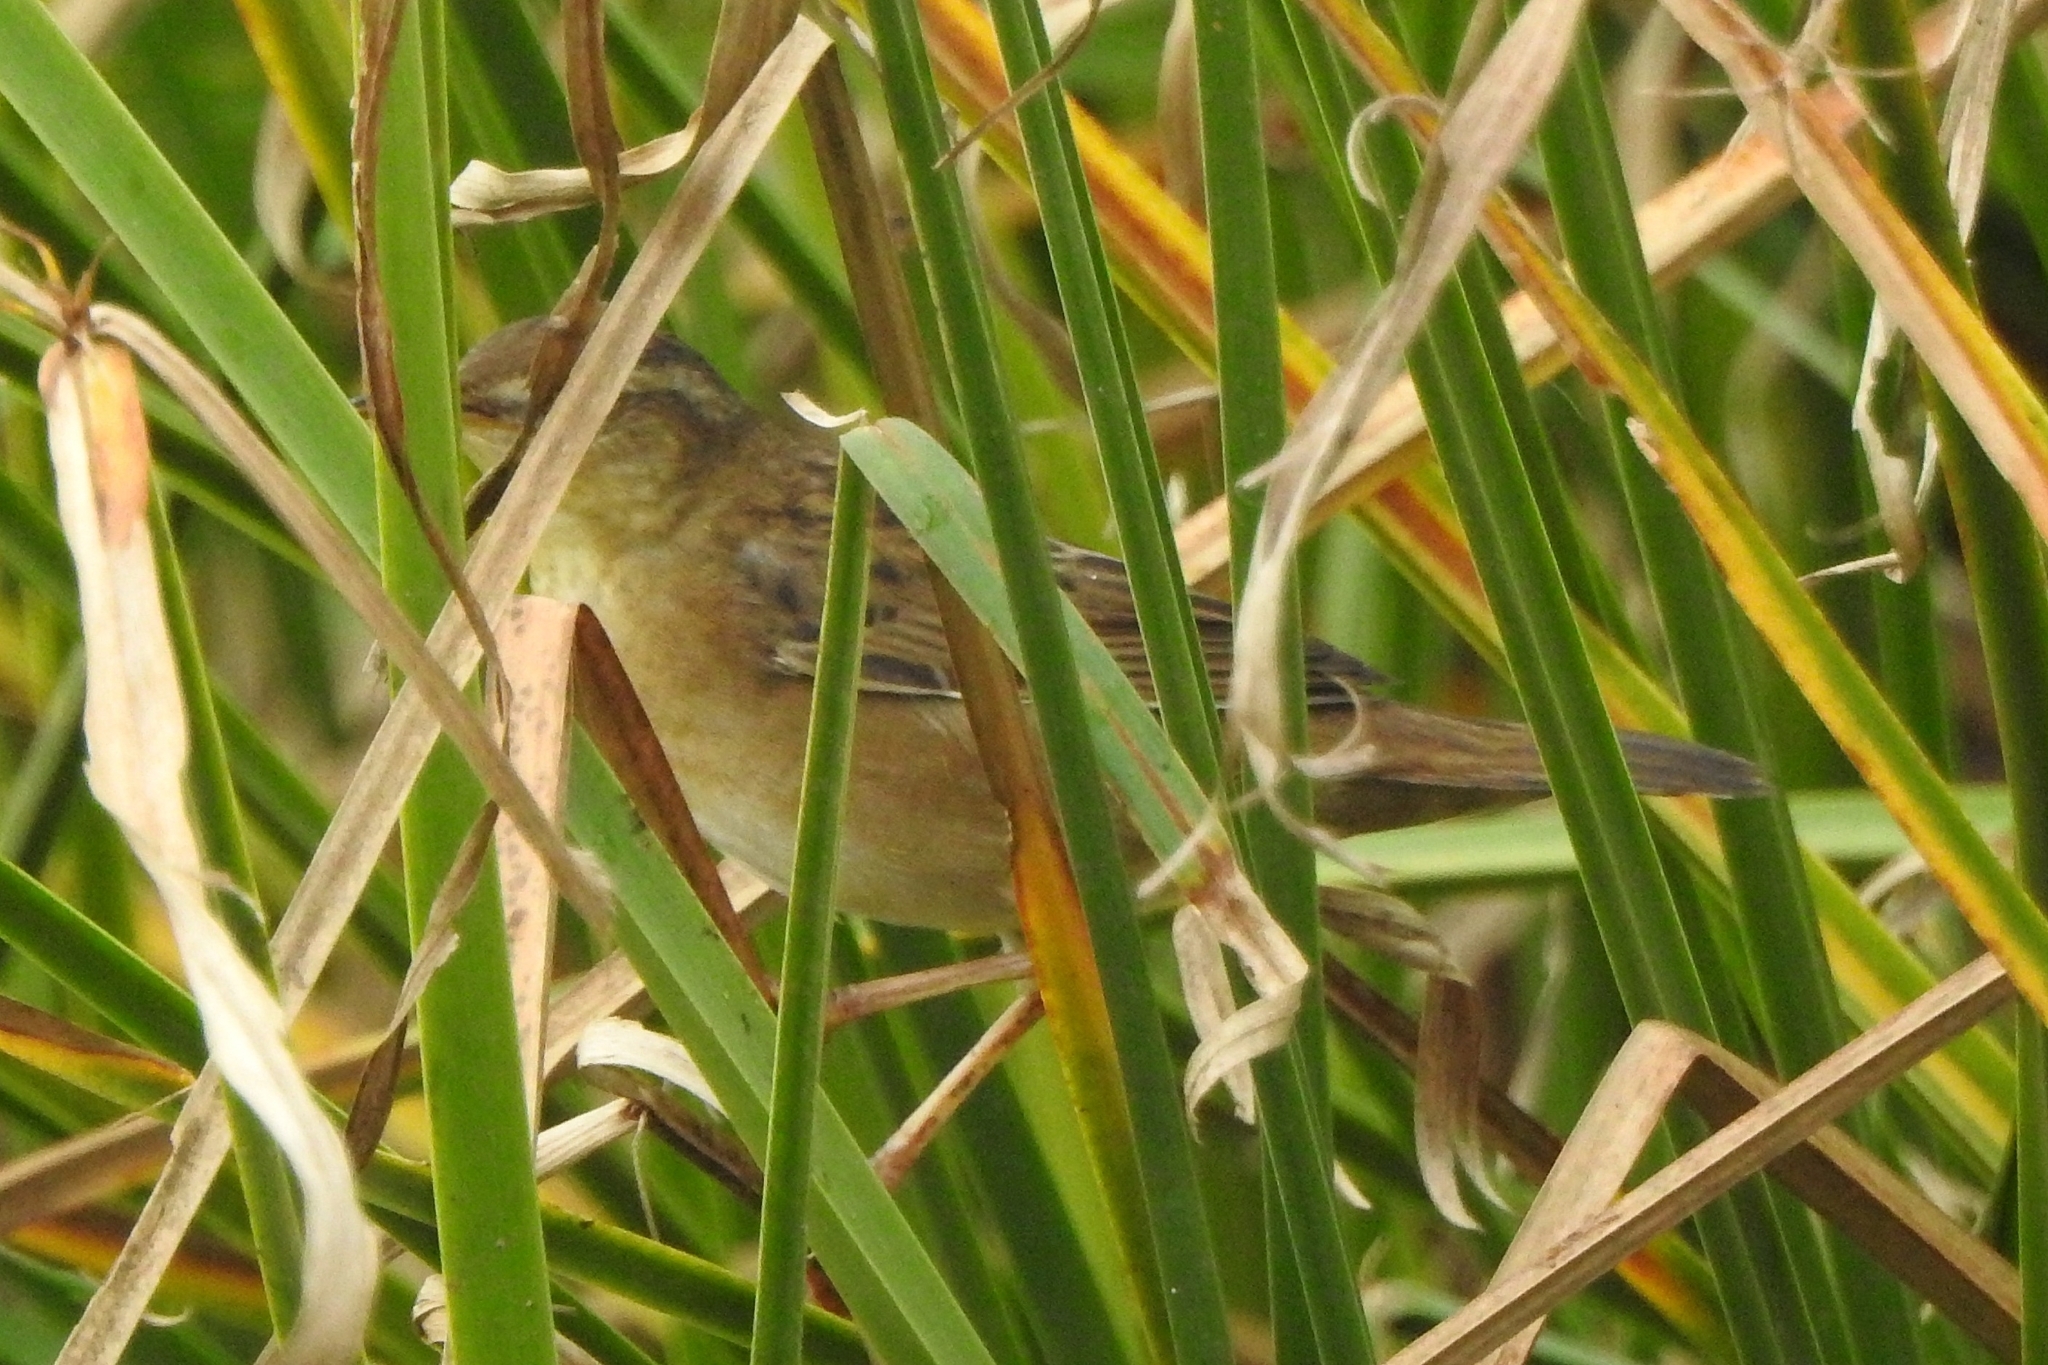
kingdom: Animalia
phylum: Chordata
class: Aves
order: Passeriformes
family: Locustellidae
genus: Locustella
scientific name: Locustella certhiola
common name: Pallas's grasshopper warbler
